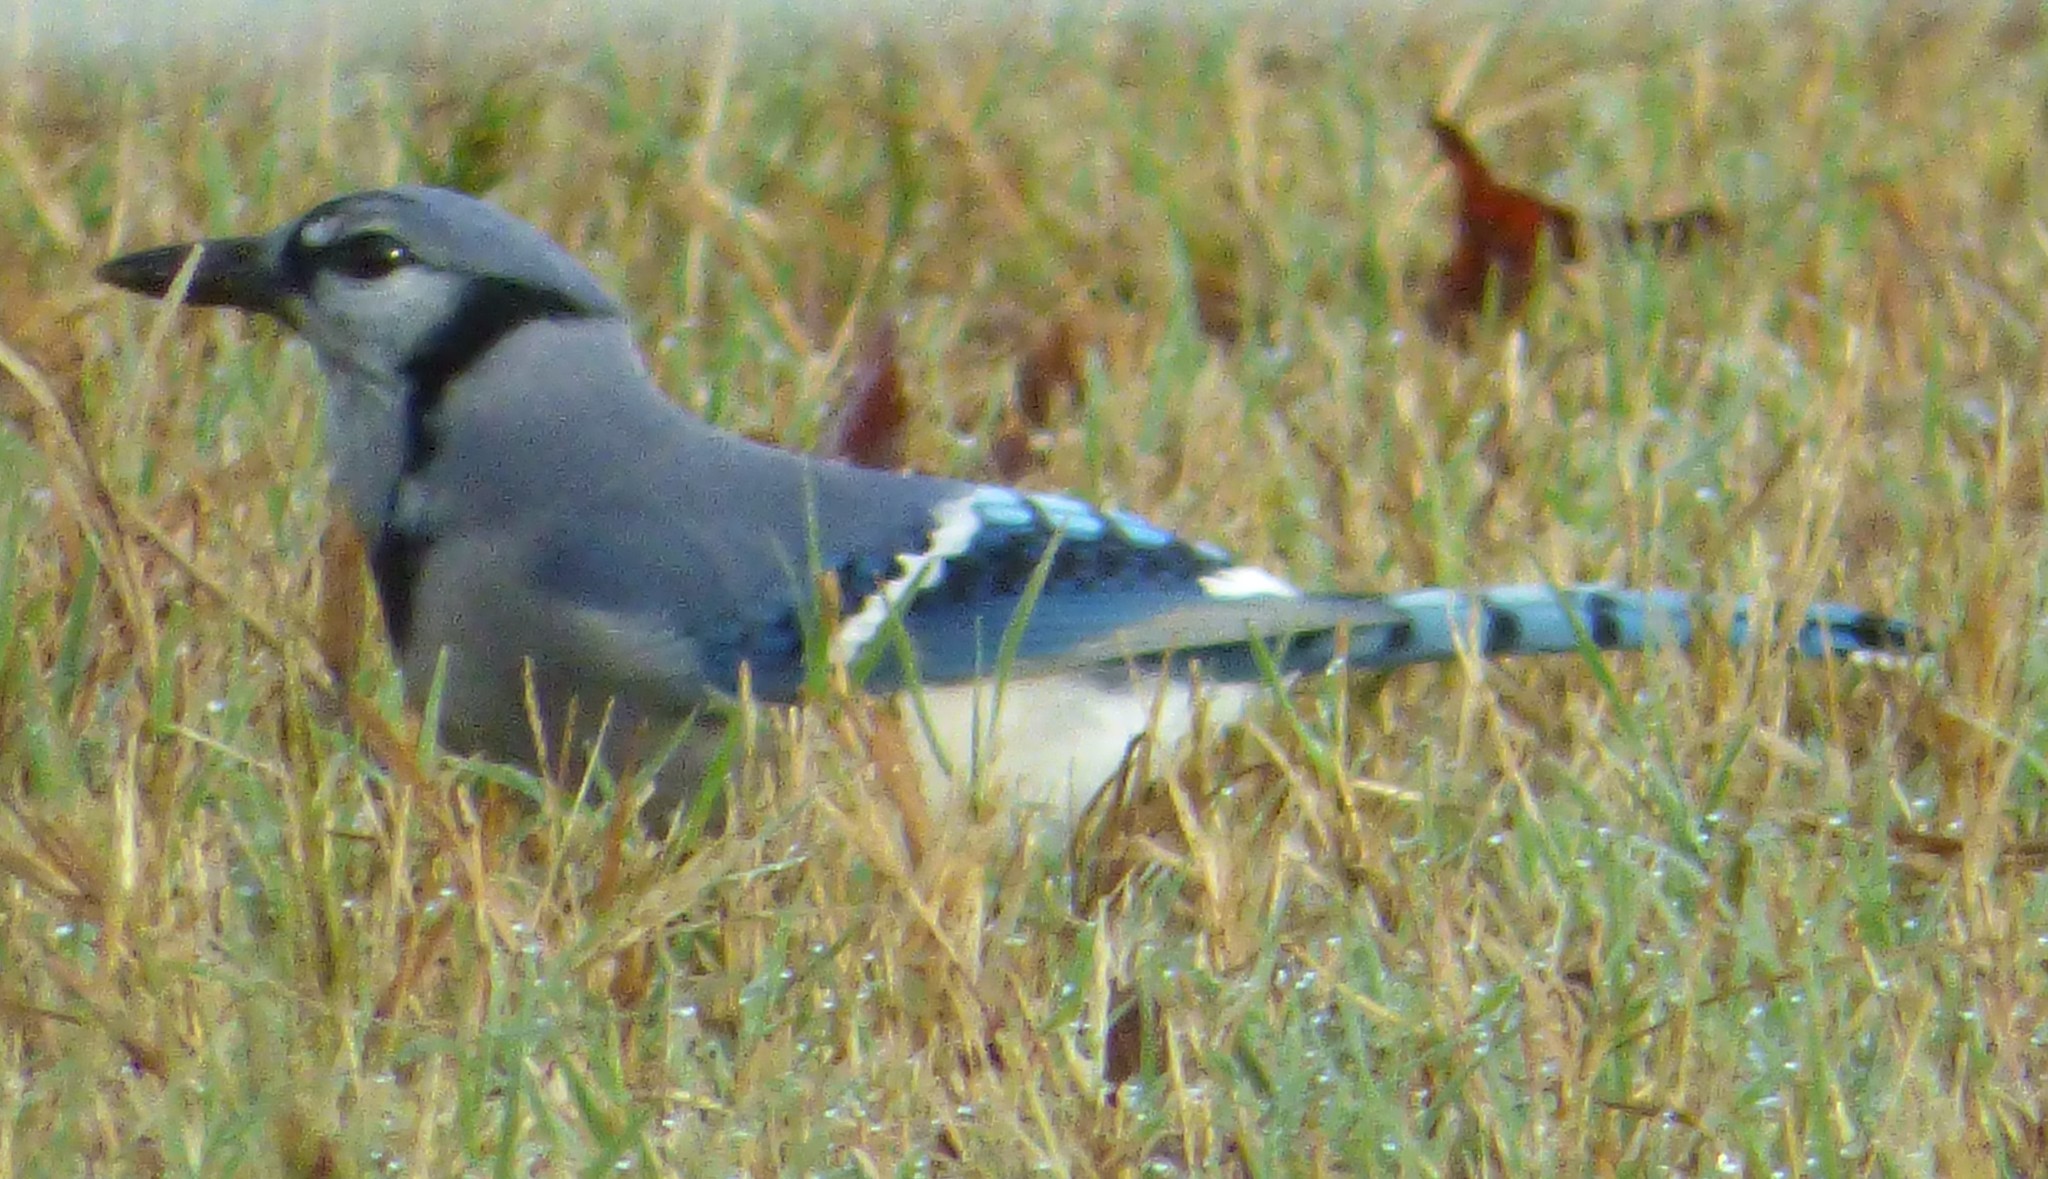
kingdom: Animalia
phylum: Chordata
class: Aves
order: Passeriformes
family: Corvidae
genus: Cyanocitta
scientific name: Cyanocitta cristata
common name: Blue jay
